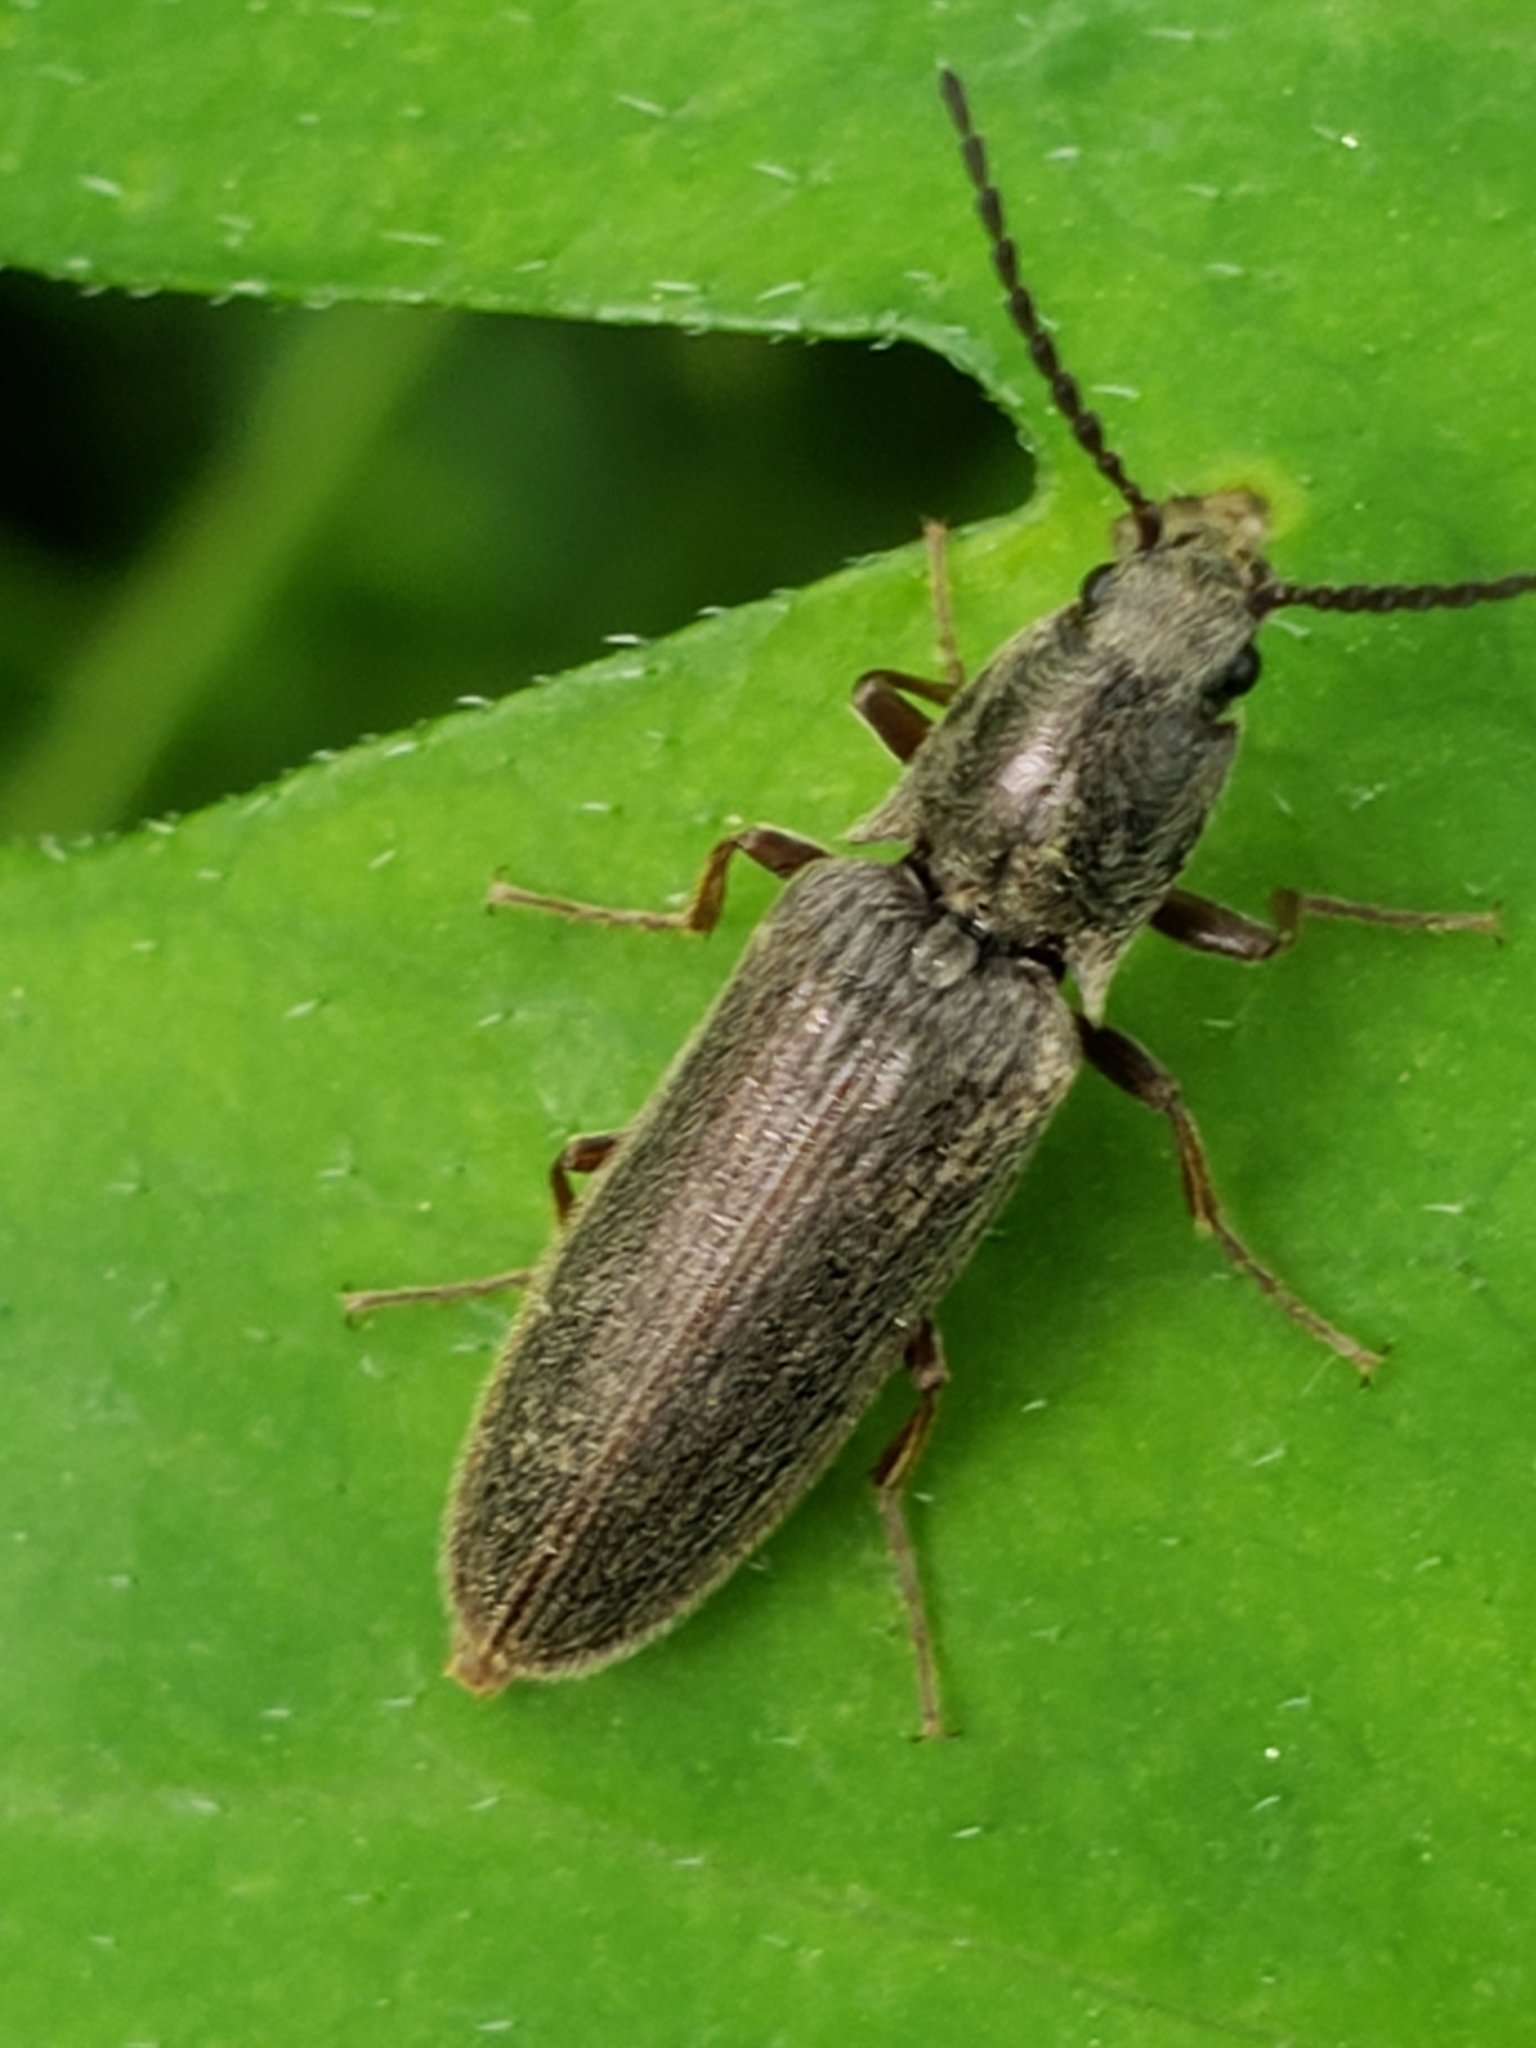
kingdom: Animalia
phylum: Arthropoda
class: Insecta
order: Coleoptera
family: Elateridae
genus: Sylvanelater
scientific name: Sylvanelater cylindriformis
